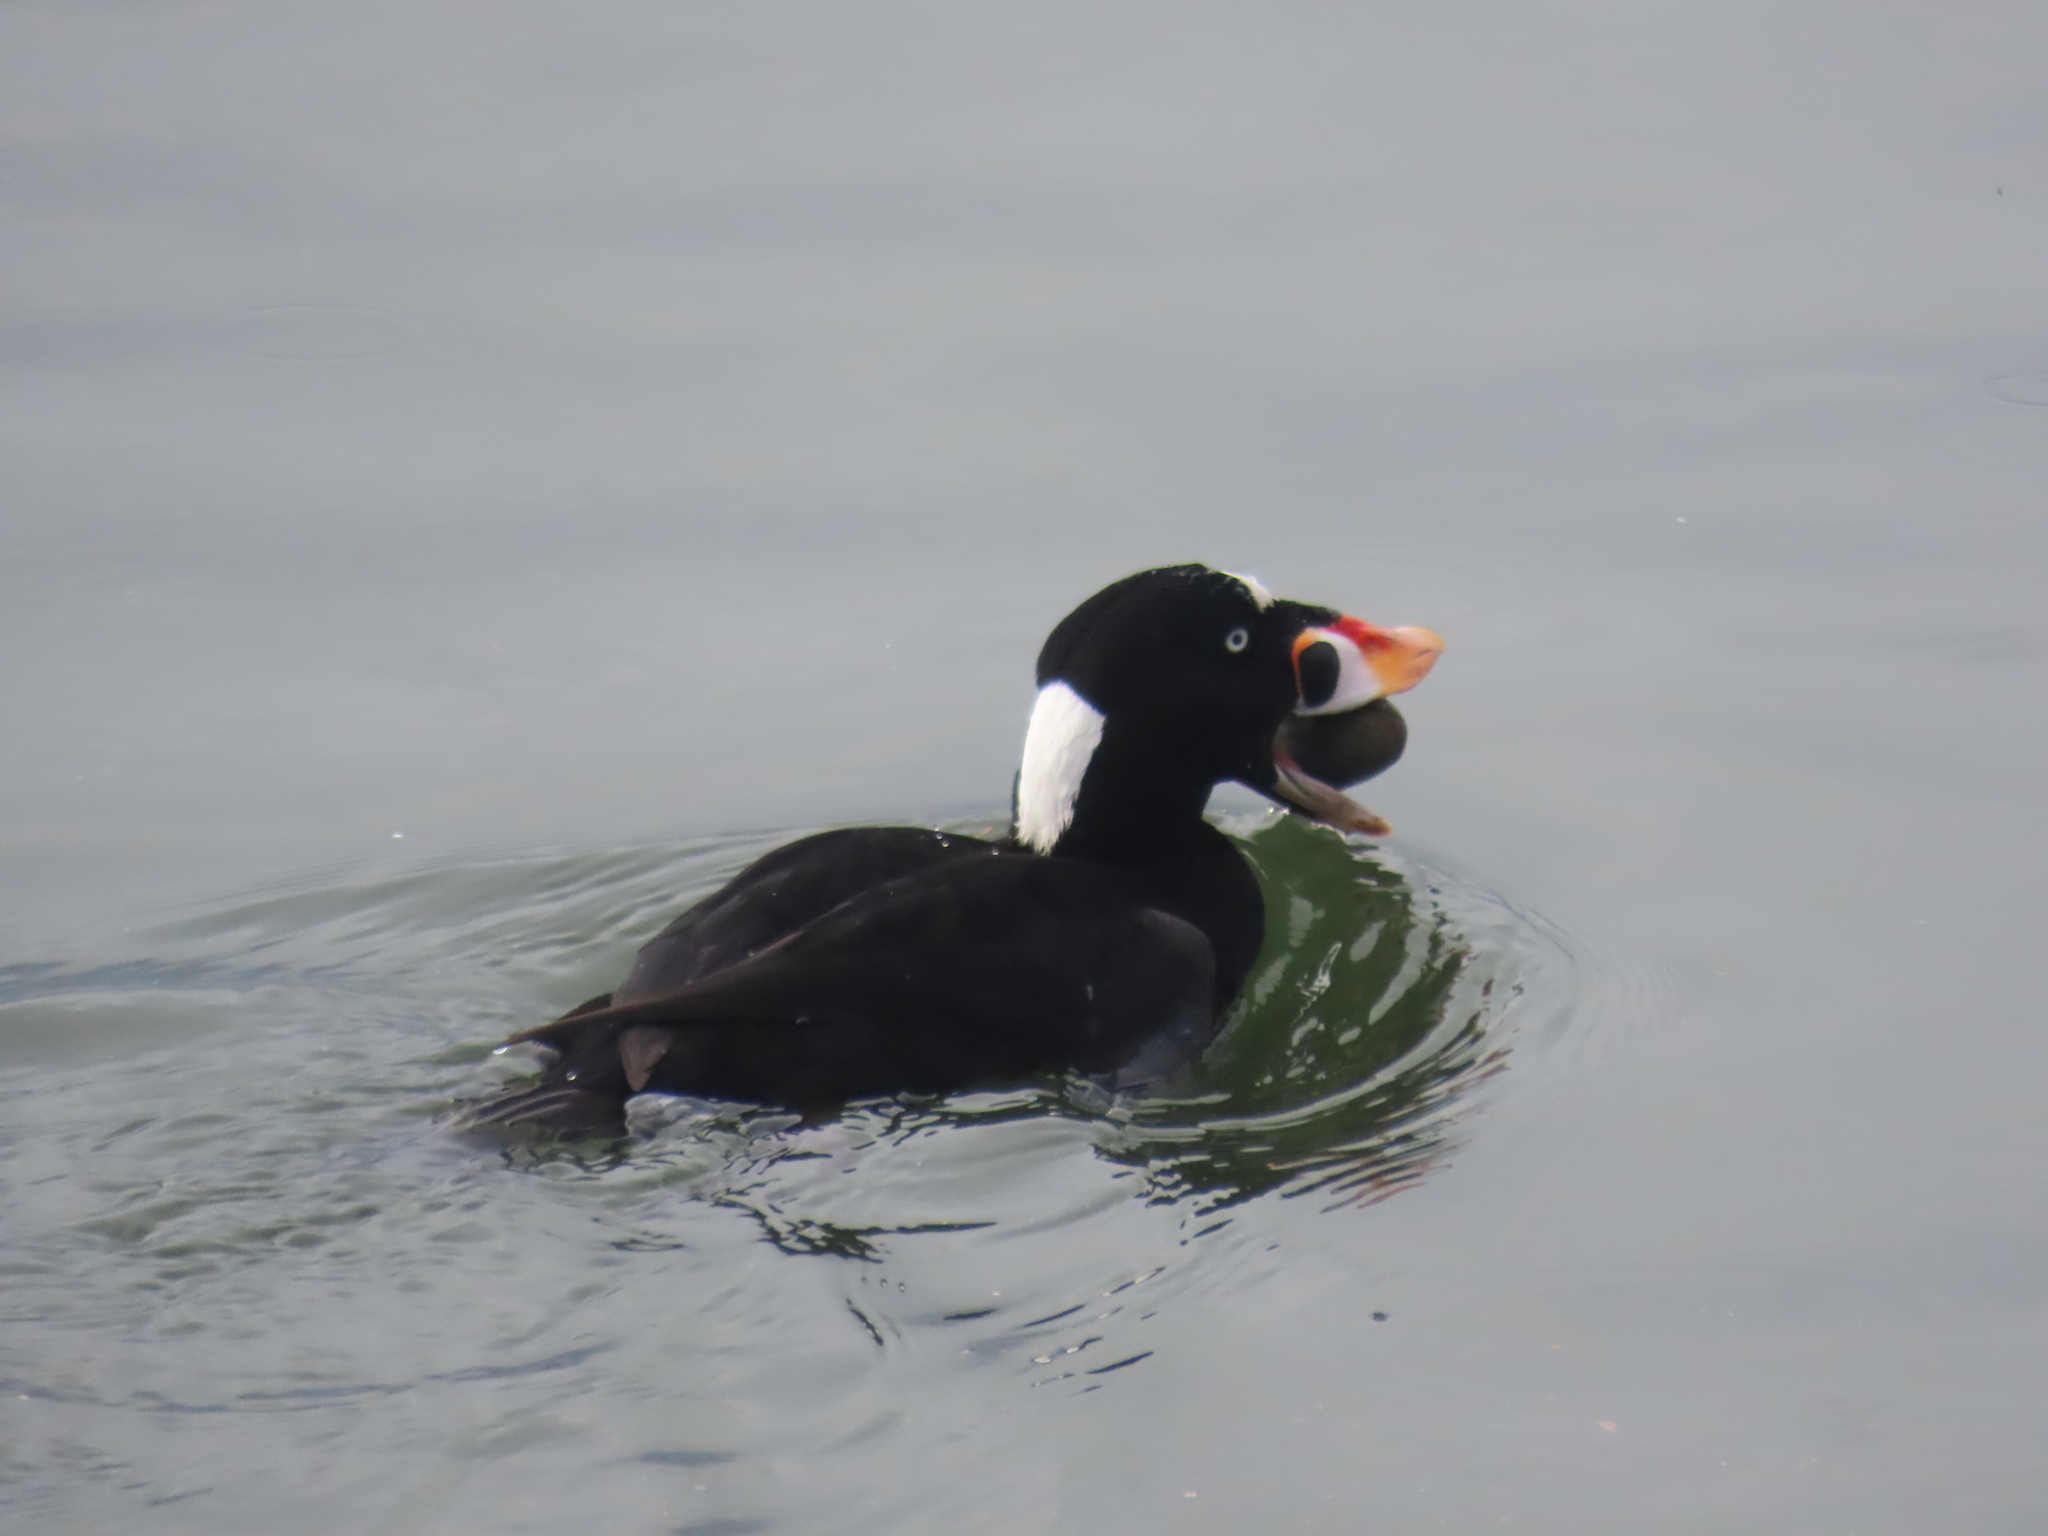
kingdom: Animalia
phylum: Chordata
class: Aves
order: Anseriformes
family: Anatidae
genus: Melanitta
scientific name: Melanitta perspicillata
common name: Surf scoter
